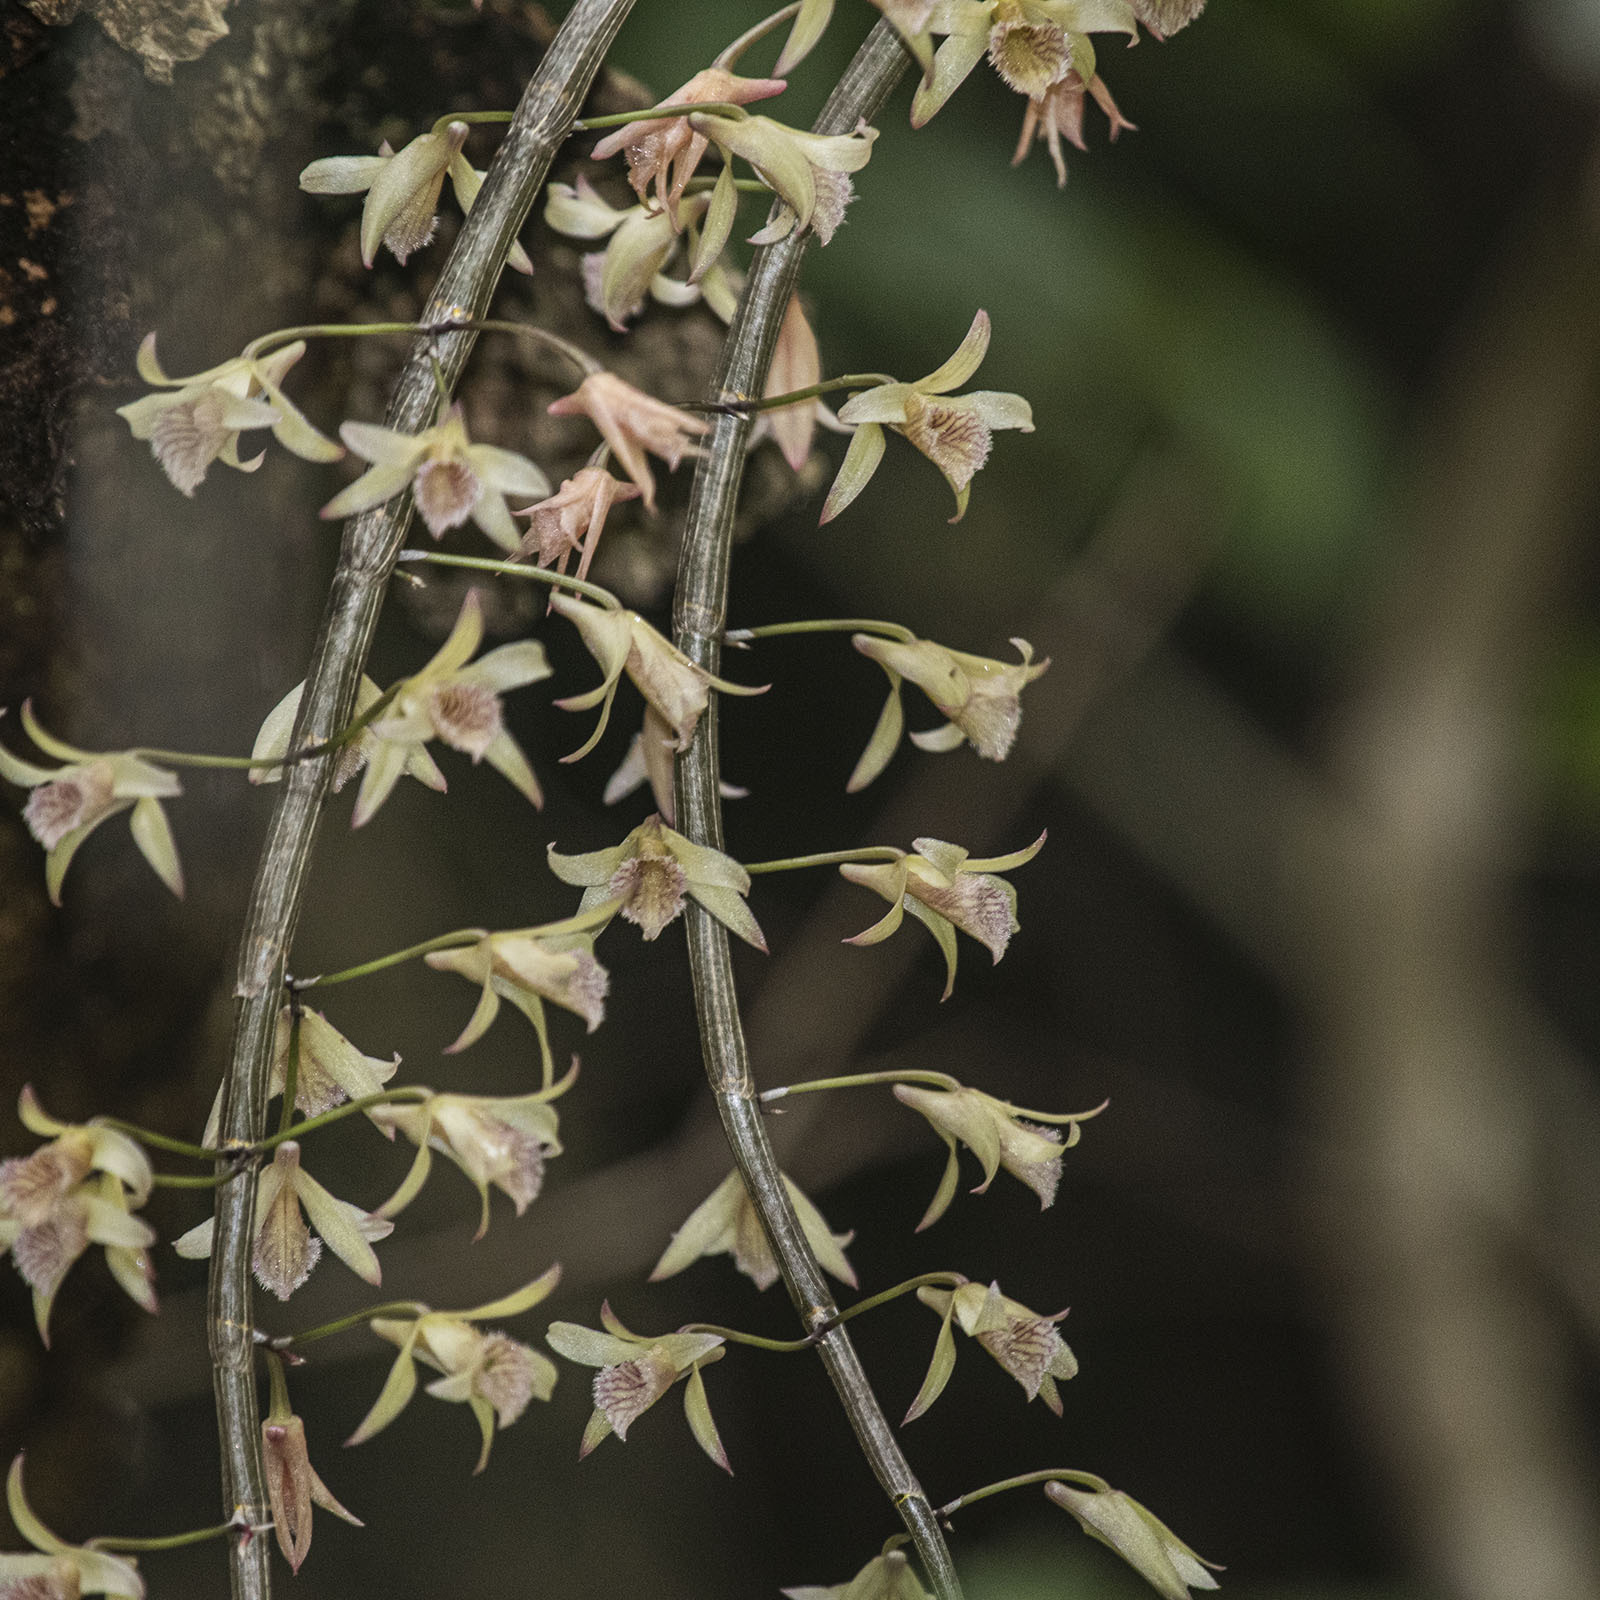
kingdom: Plantae
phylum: Tracheophyta
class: Liliopsida
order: Asparagales
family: Orchidaceae
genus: Dendrobium
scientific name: Dendrobium macrostachyum
